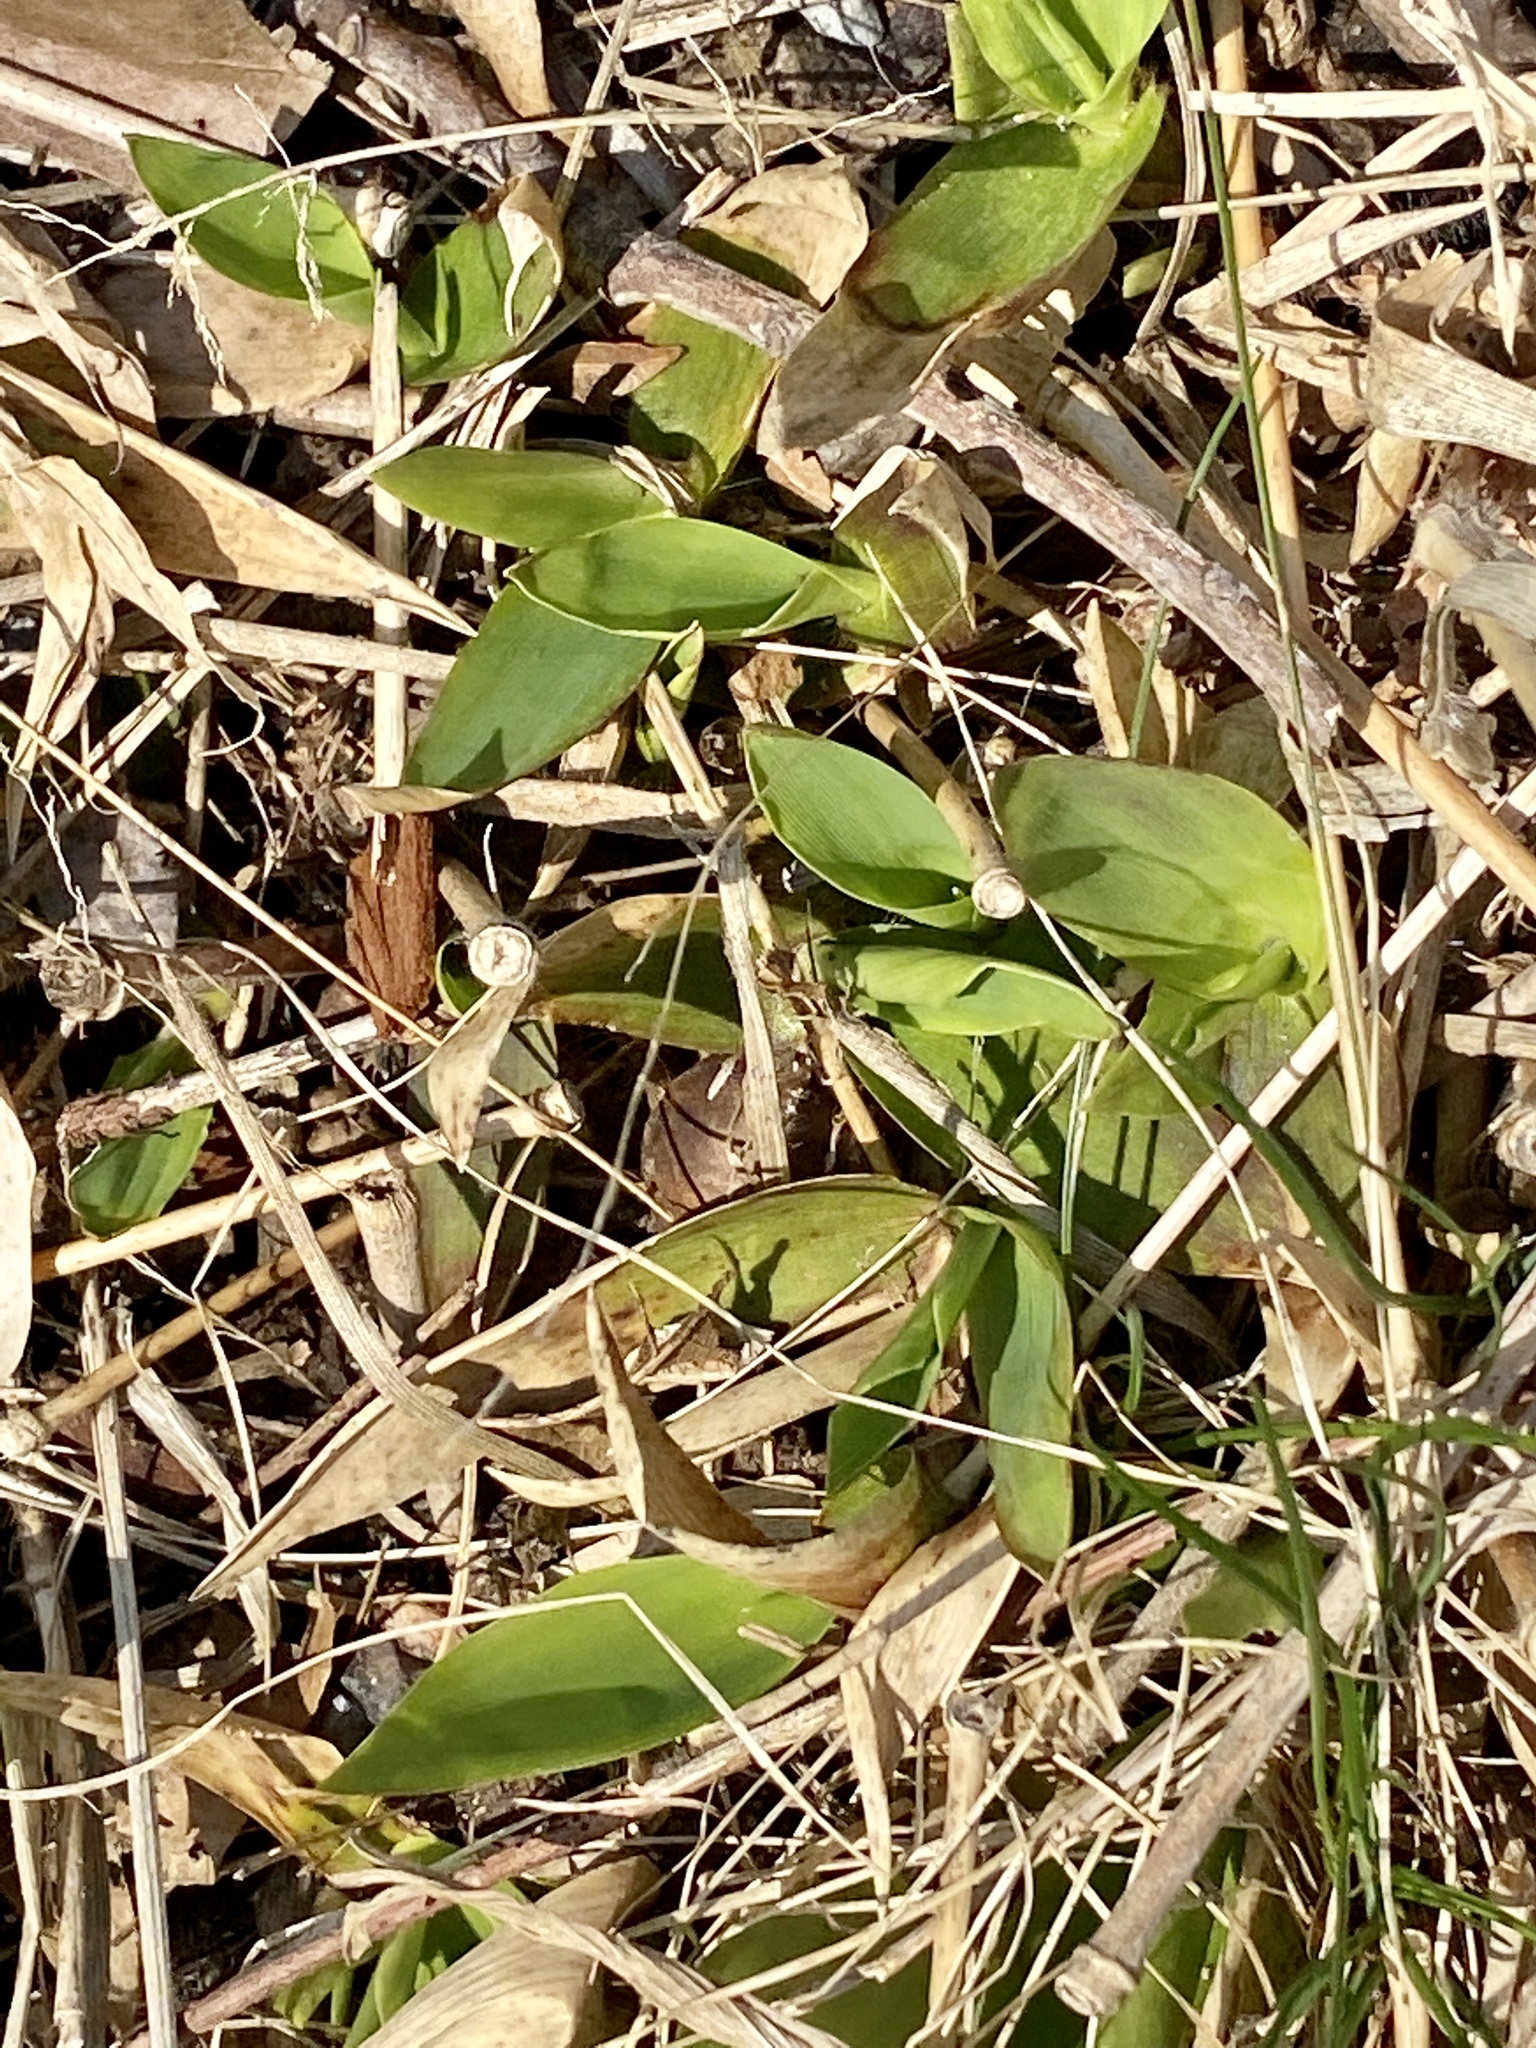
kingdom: Plantae
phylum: Tracheophyta
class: Liliopsida
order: Poales
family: Poaceae
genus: Dichanthelium
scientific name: Dichanthelium clandestinum
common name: Deer-tongue grass
